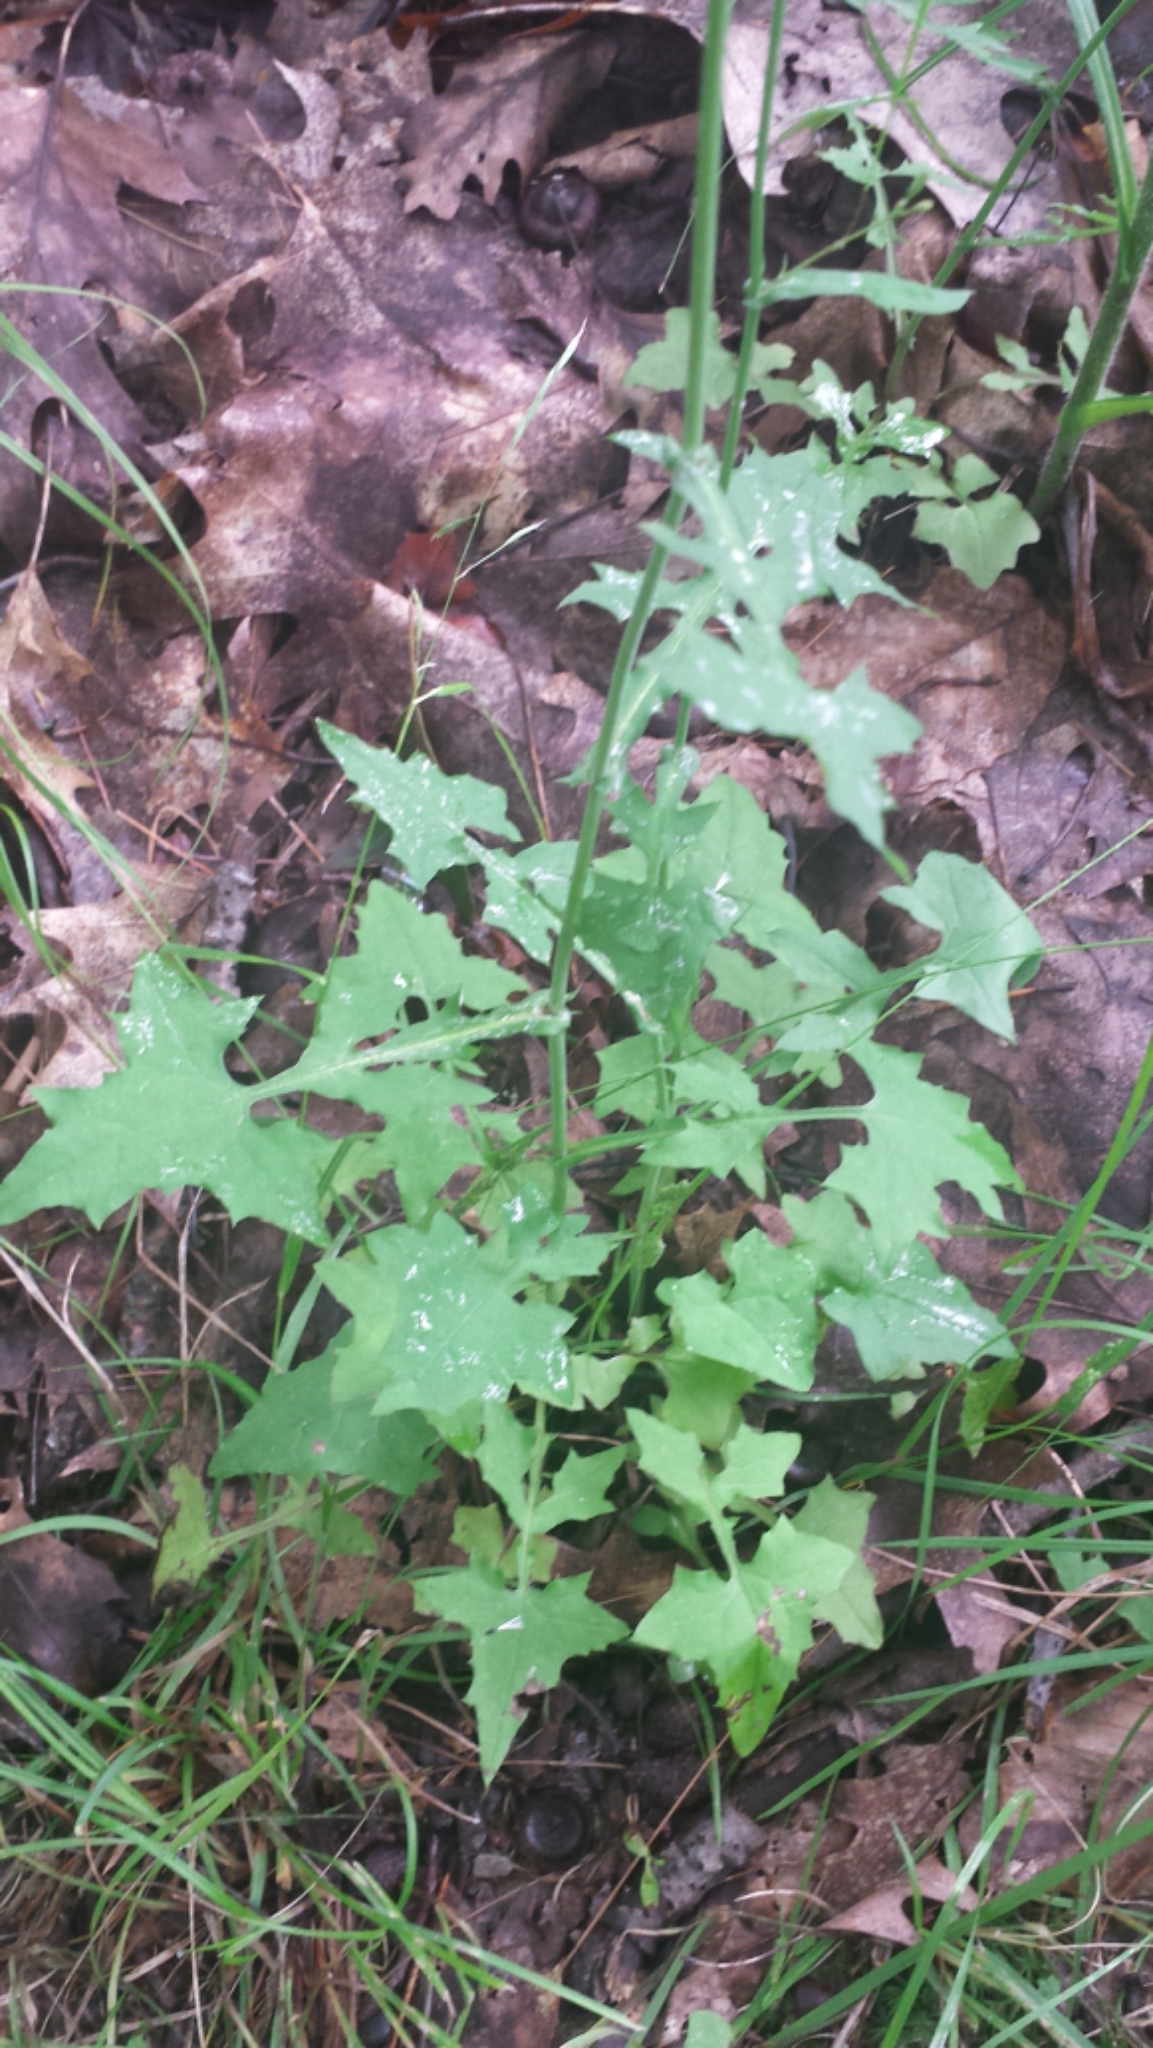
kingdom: Plantae
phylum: Tracheophyta
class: Magnoliopsida
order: Asterales
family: Asteraceae
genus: Mycelis
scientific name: Mycelis muralis
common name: Wall lettuce
